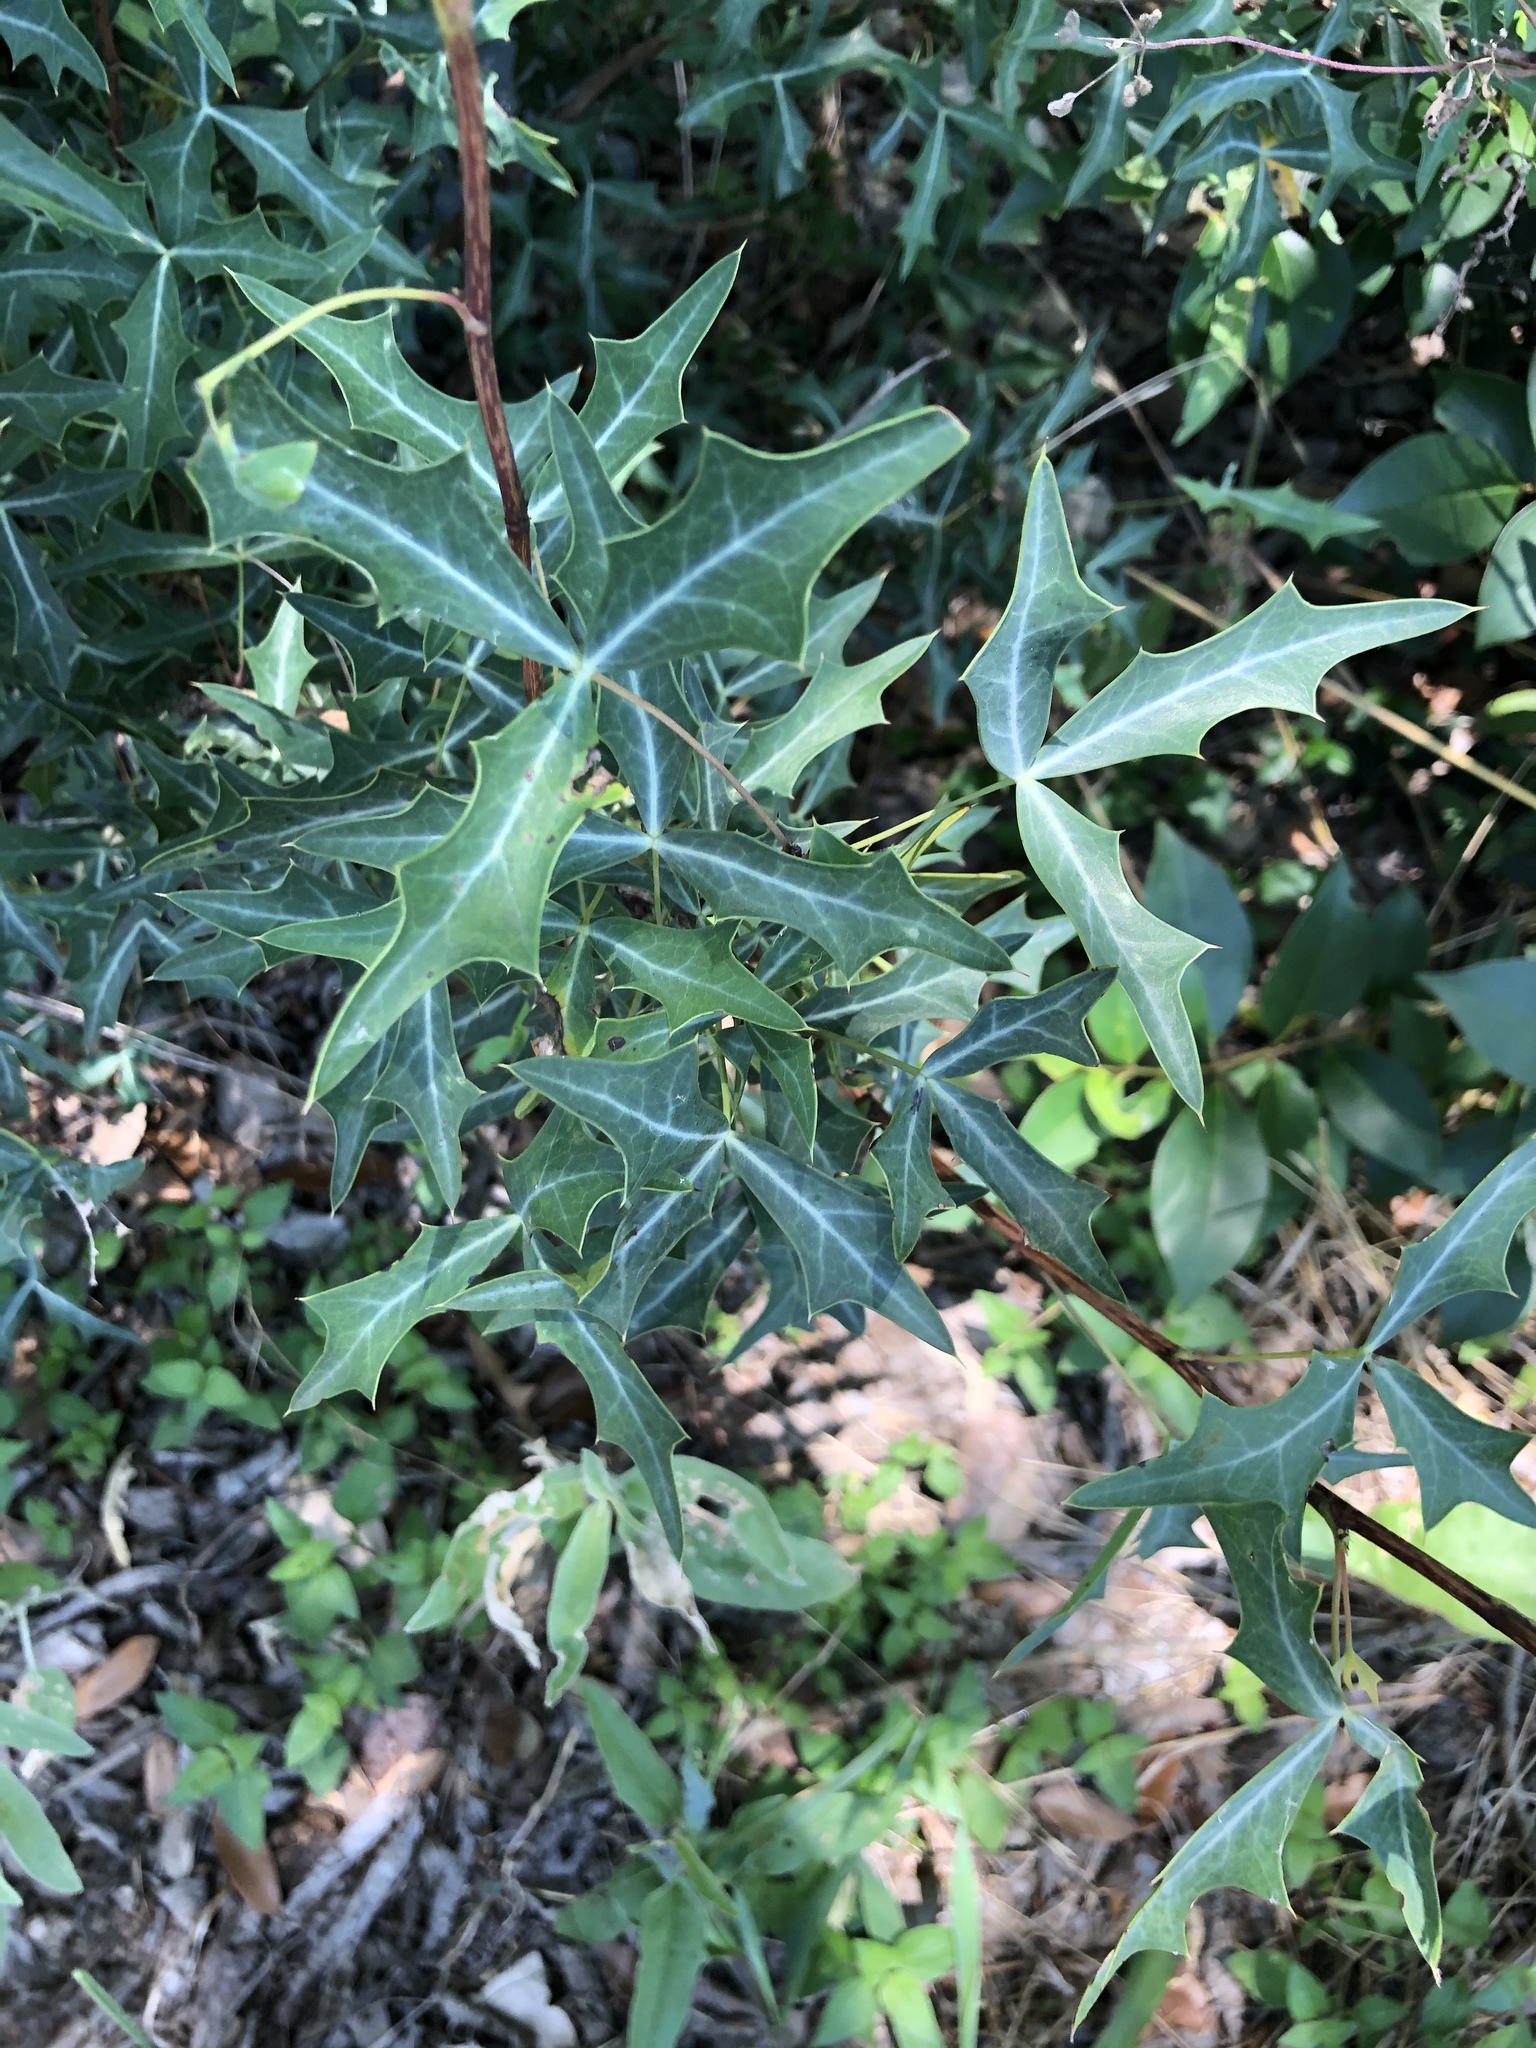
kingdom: Plantae
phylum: Tracheophyta
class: Magnoliopsida
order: Ranunculales
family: Berberidaceae
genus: Alloberberis
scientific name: Alloberberis trifoliolata
